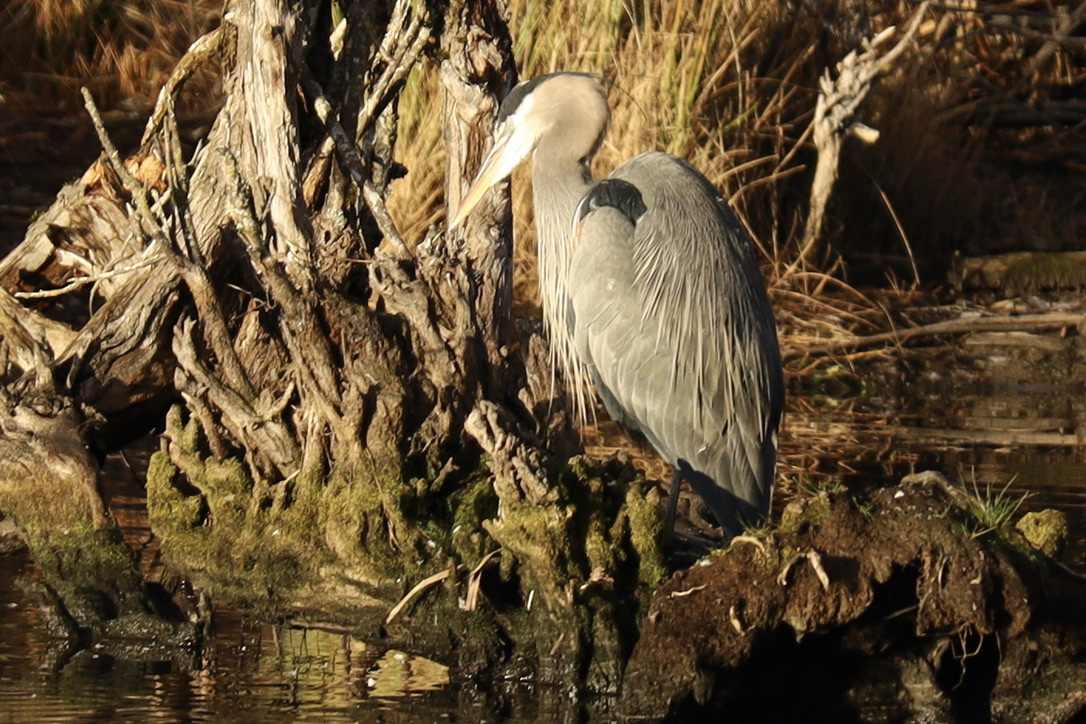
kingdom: Animalia
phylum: Chordata
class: Aves
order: Pelecaniformes
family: Ardeidae
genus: Ardea
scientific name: Ardea herodias
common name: Great blue heron
